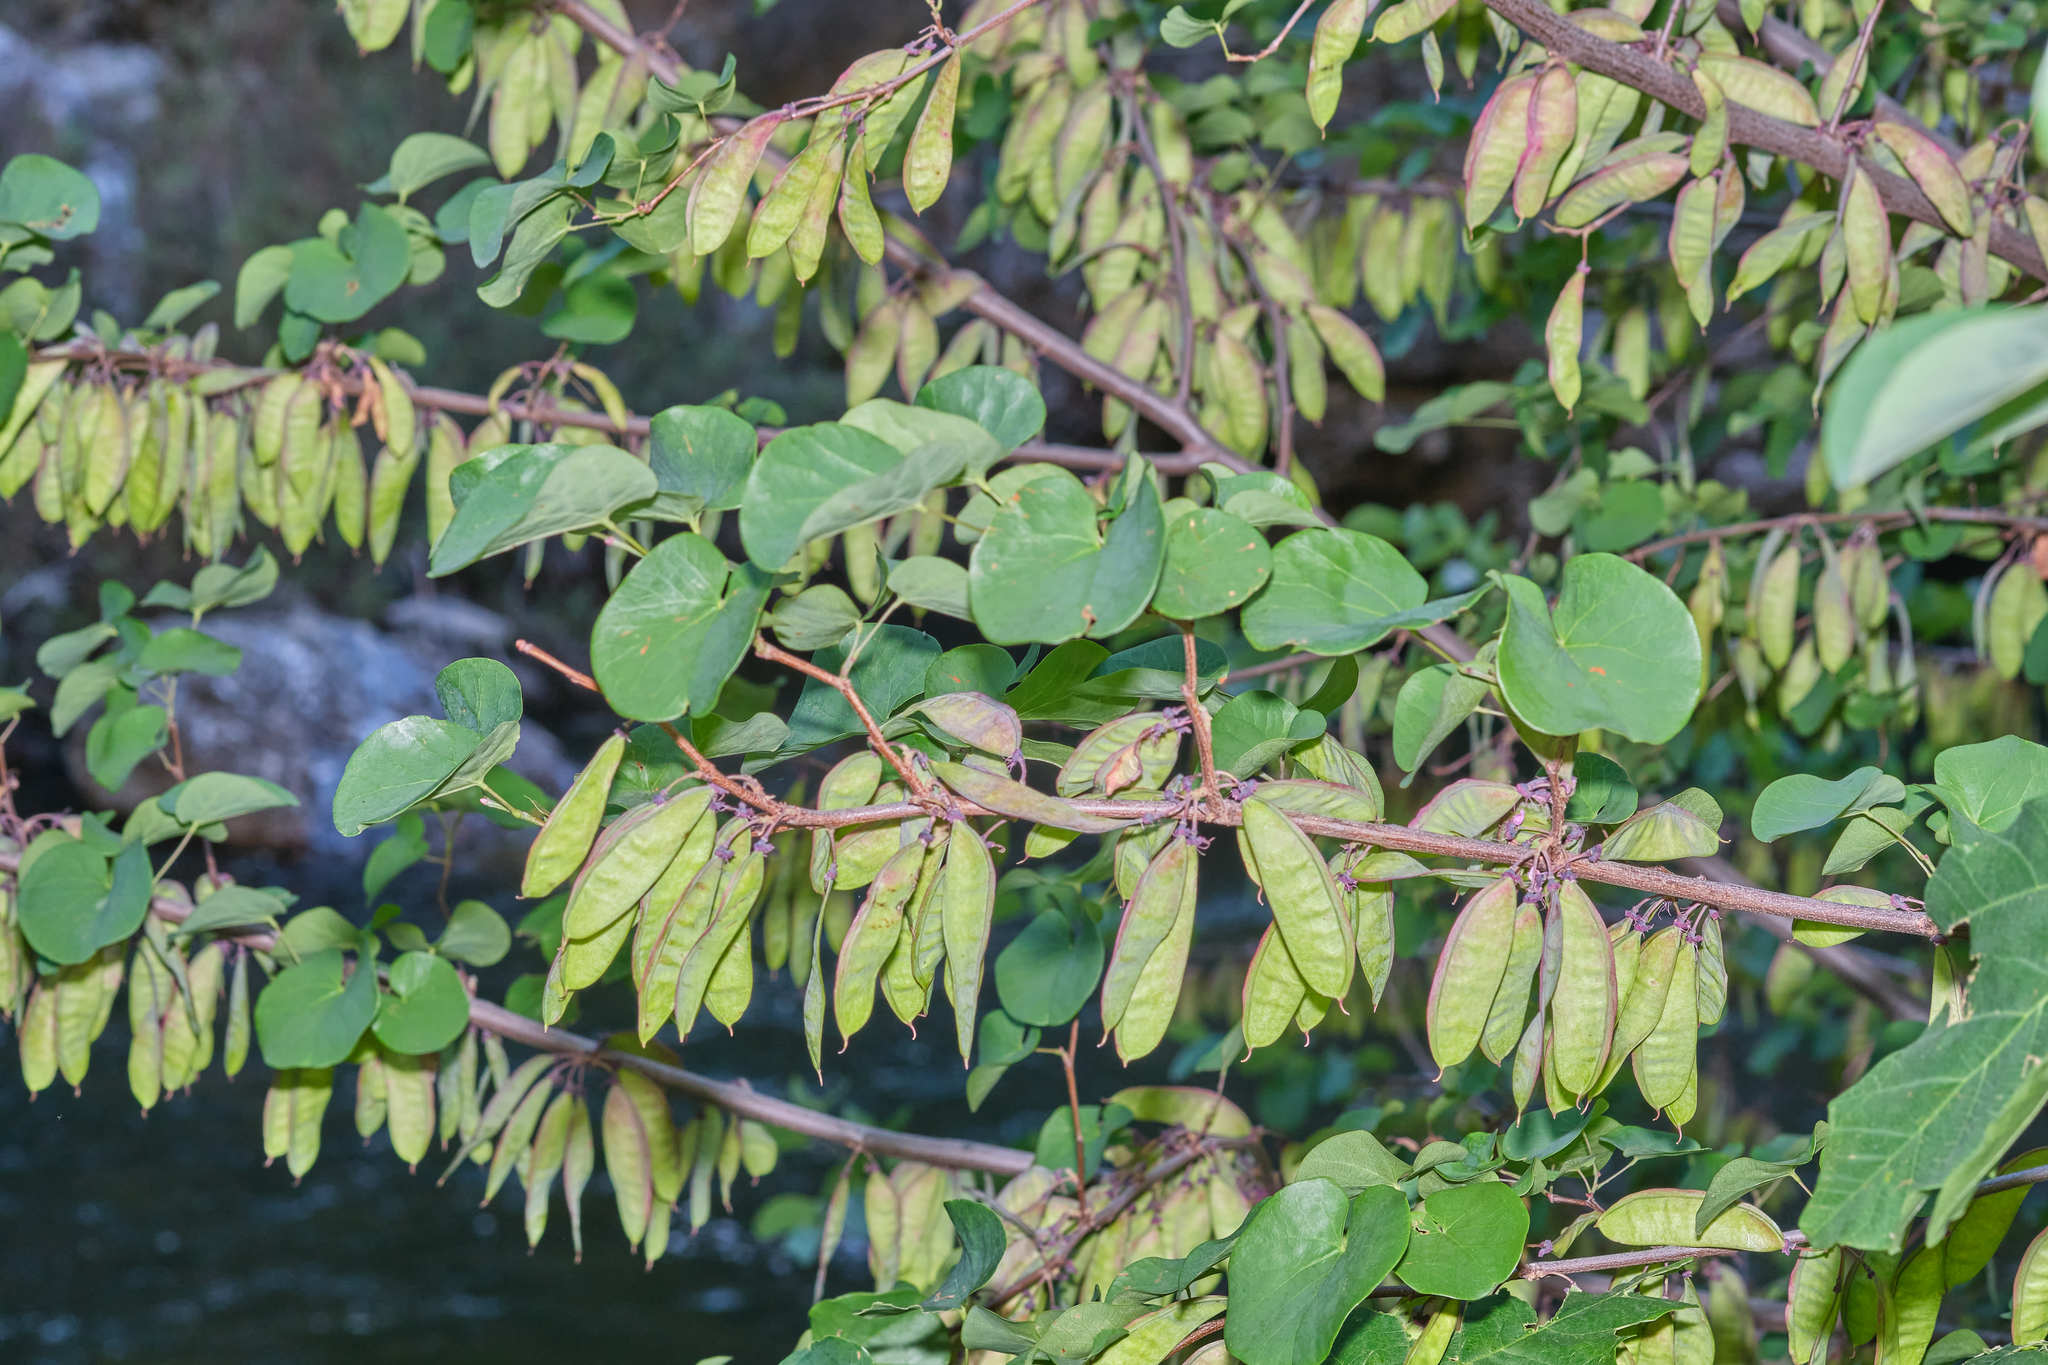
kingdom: Plantae
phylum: Tracheophyta
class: Magnoliopsida
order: Fabales
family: Fabaceae
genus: Cercis
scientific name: Cercis occidentalis
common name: California redbud
